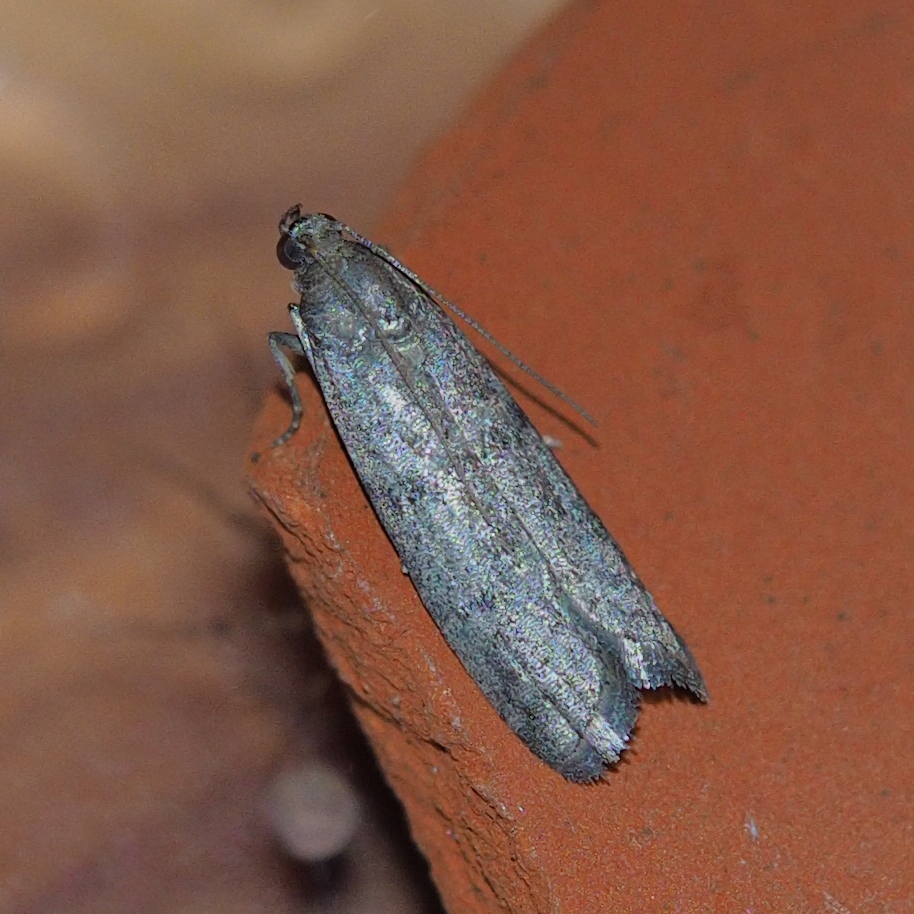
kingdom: Animalia
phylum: Arthropoda
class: Insecta
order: Lepidoptera
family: Pyralidae
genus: Ephestia
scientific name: Ephestia
